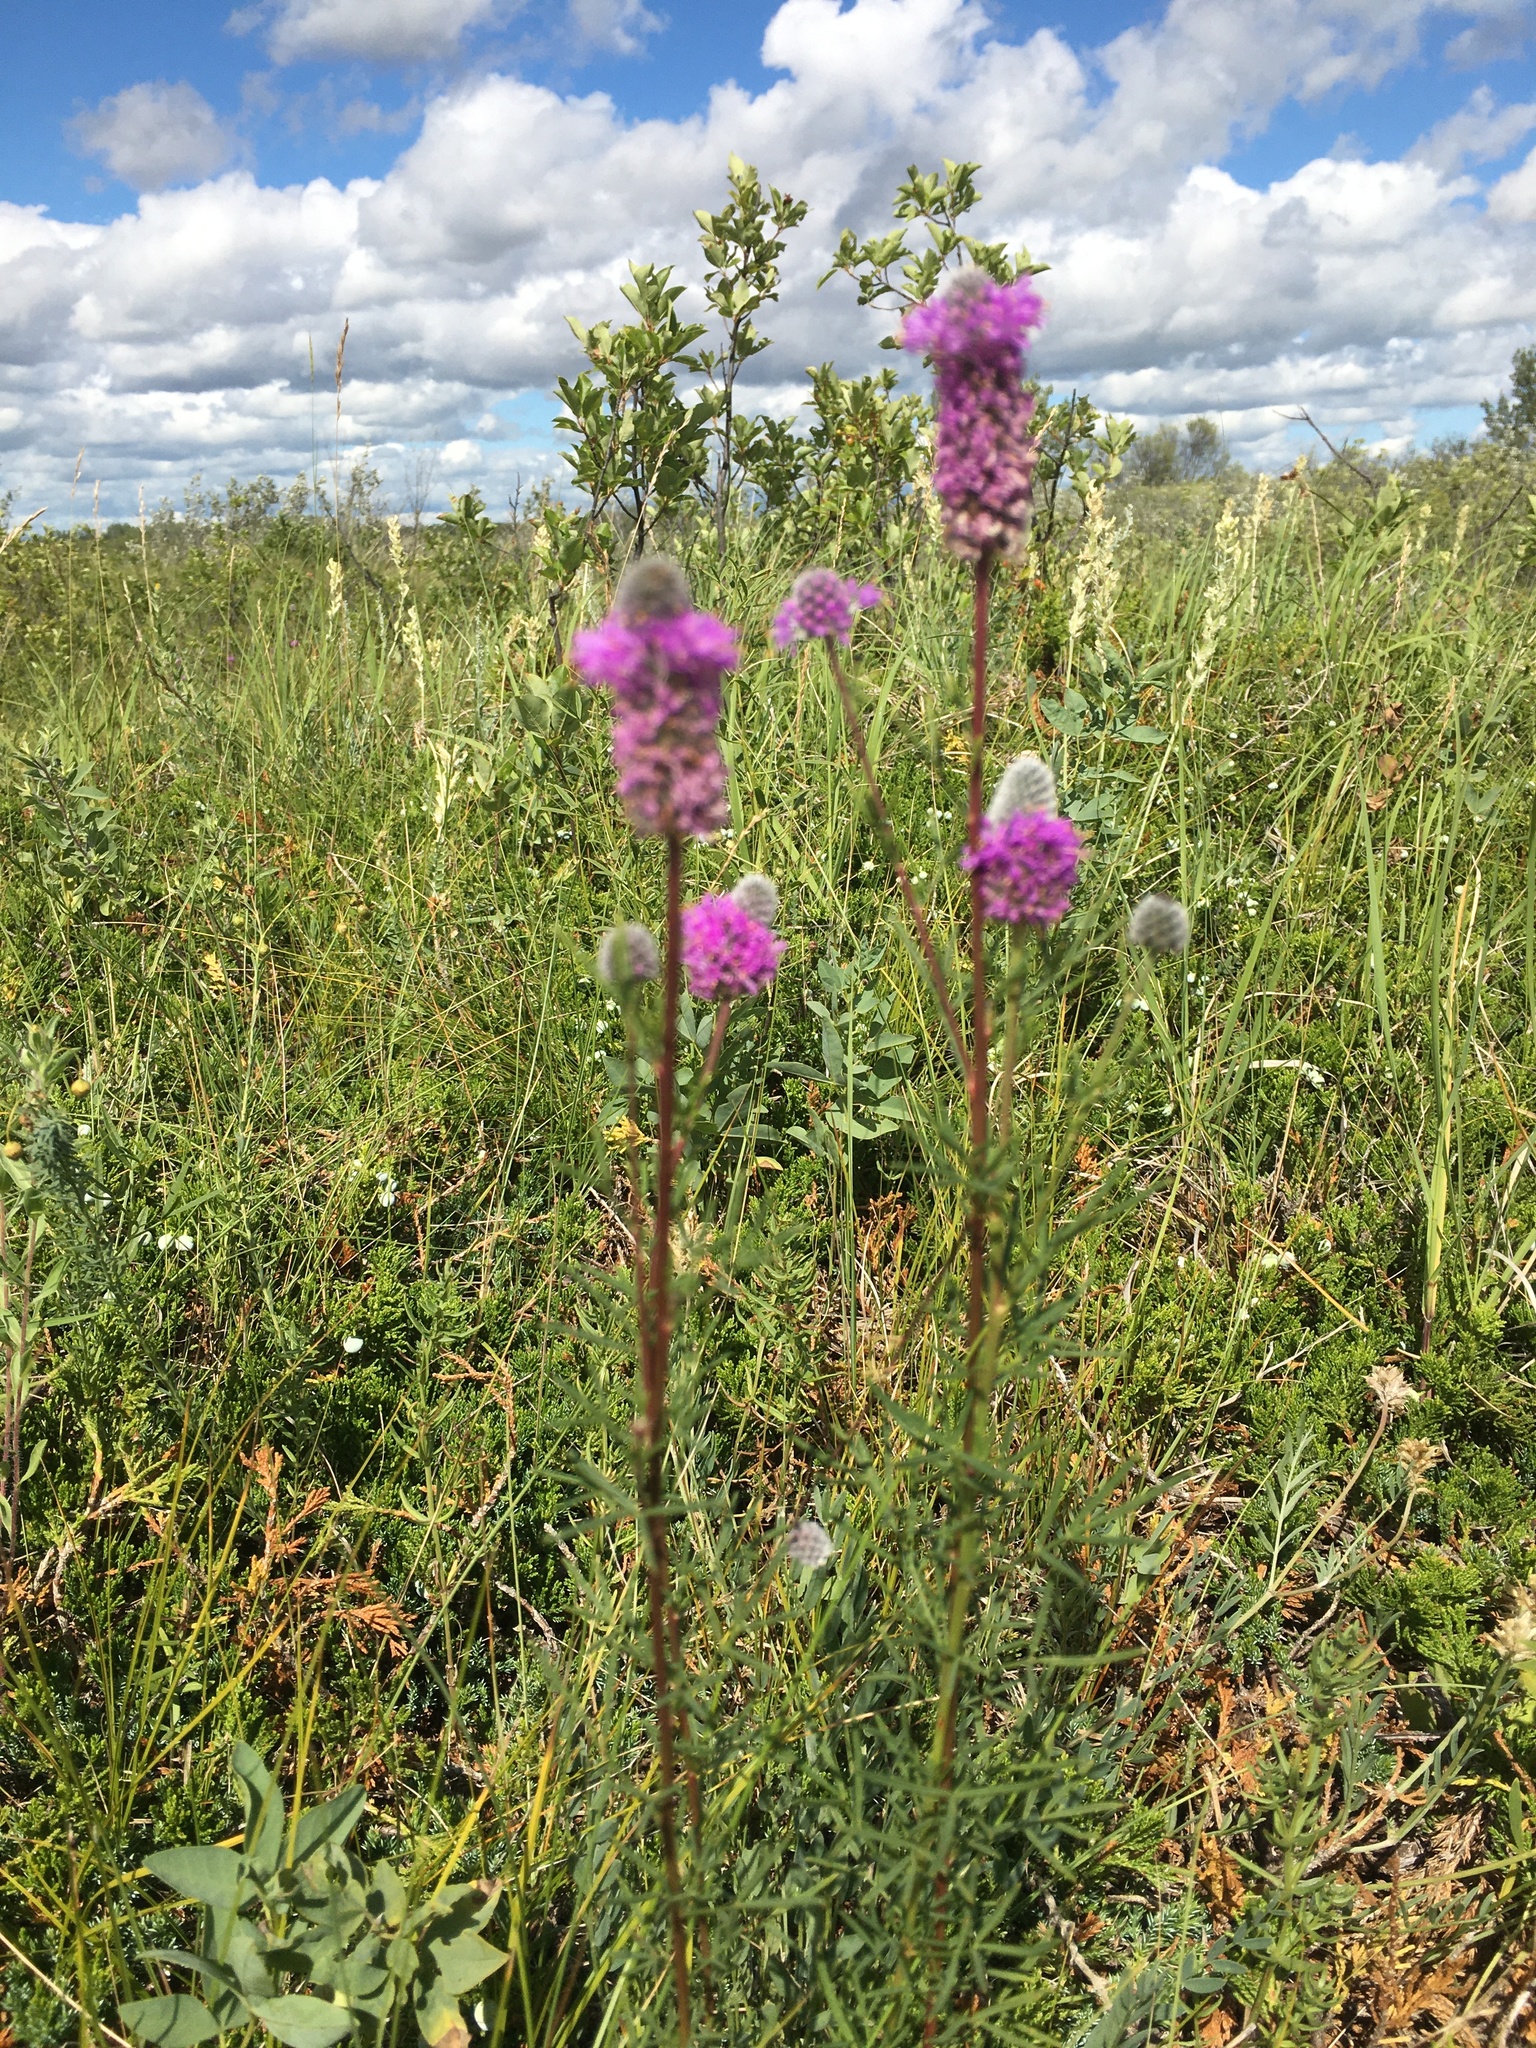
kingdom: Plantae
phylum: Tracheophyta
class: Magnoliopsida
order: Fabales
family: Fabaceae
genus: Dalea
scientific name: Dalea purpurea
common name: Purple prairie-clover
